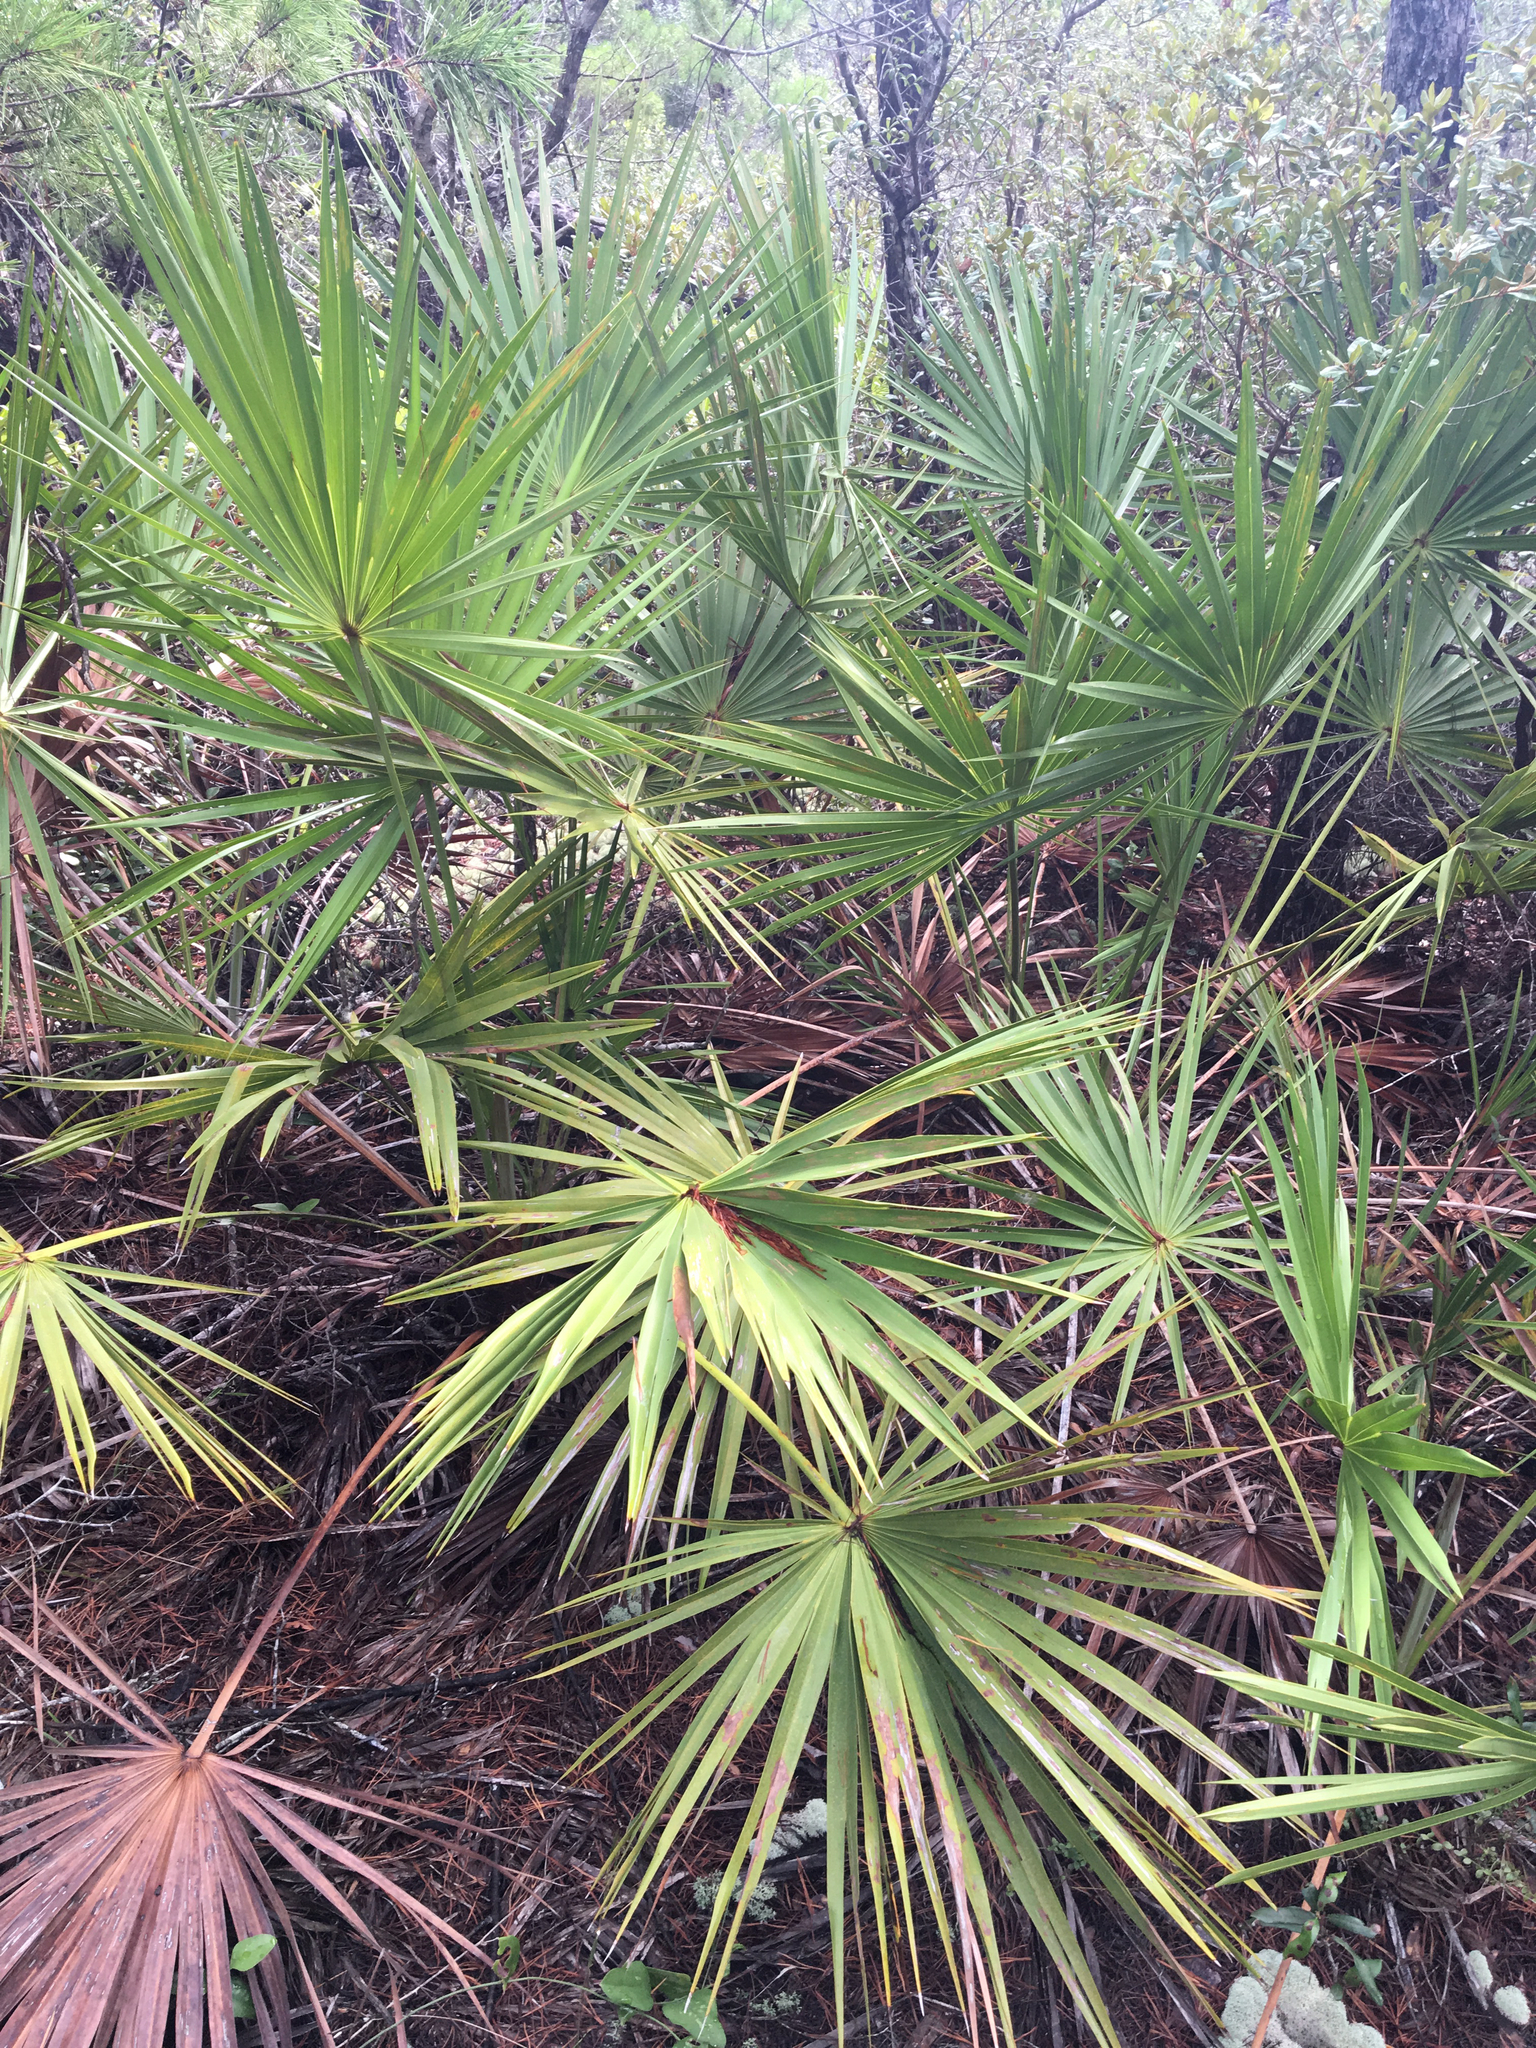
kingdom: Plantae
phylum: Tracheophyta
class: Liliopsida
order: Arecales
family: Arecaceae
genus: Serenoa
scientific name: Serenoa repens
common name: Saw-palmetto
